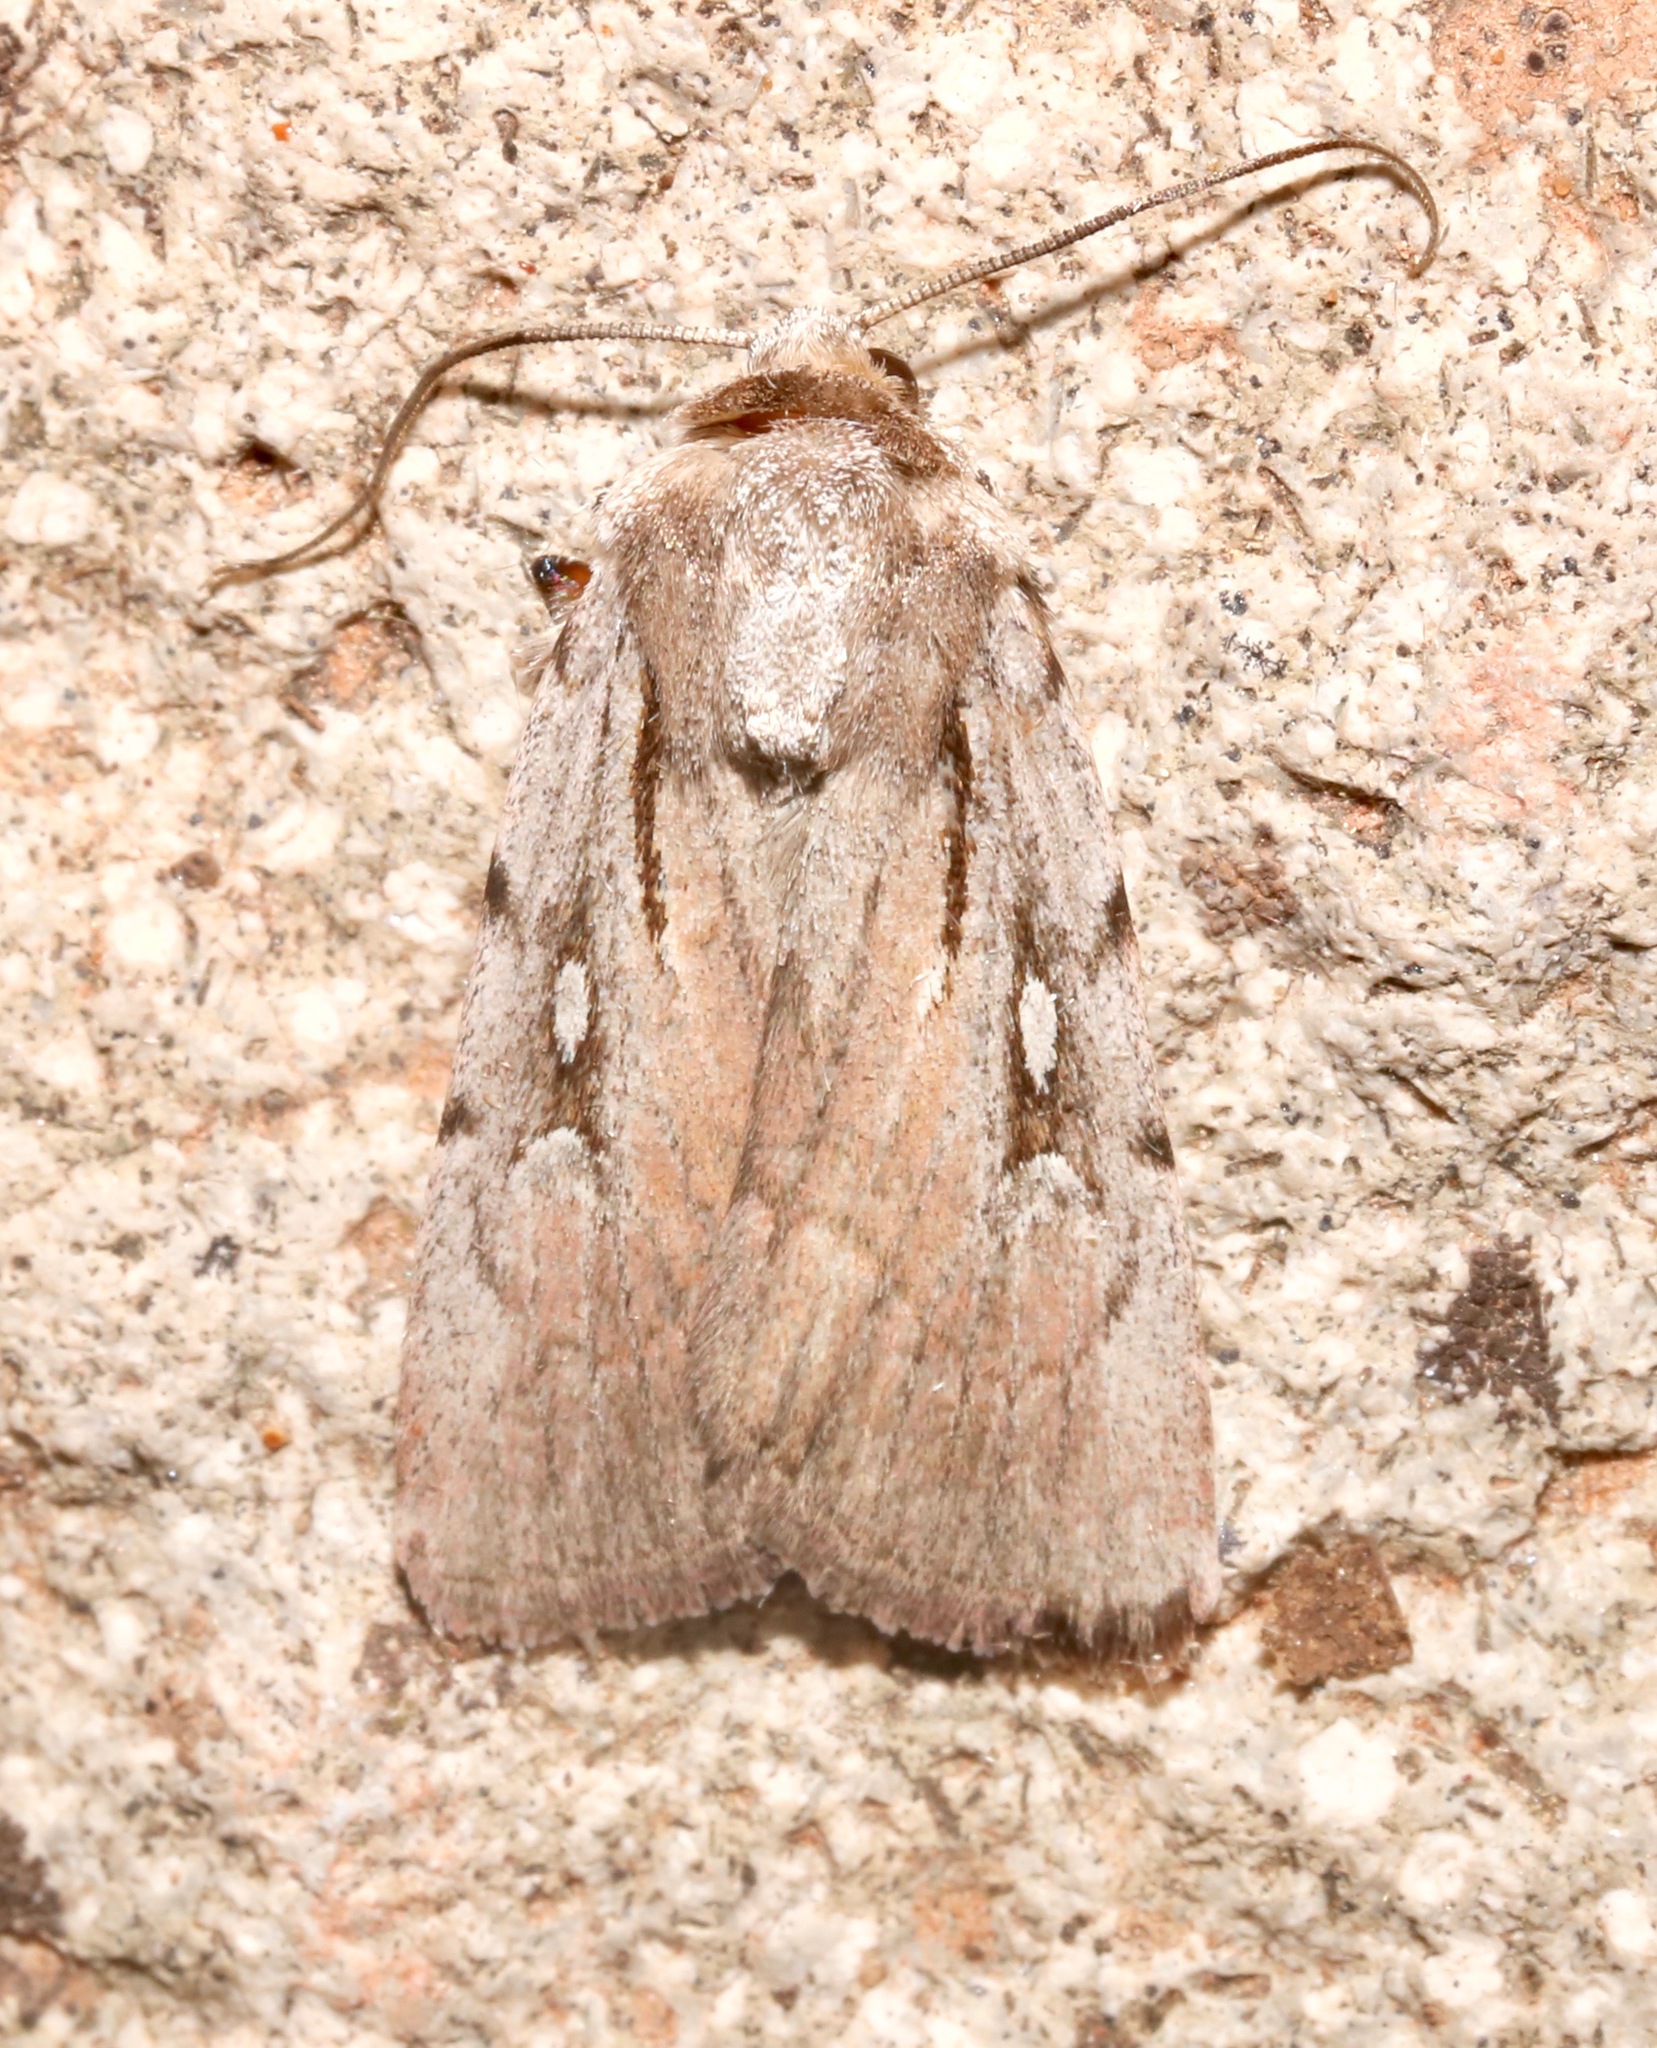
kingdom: Animalia
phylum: Arthropoda
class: Insecta
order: Lepidoptera
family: Noctuidae
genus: Setagrotis
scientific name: Setagrotis vocalis
